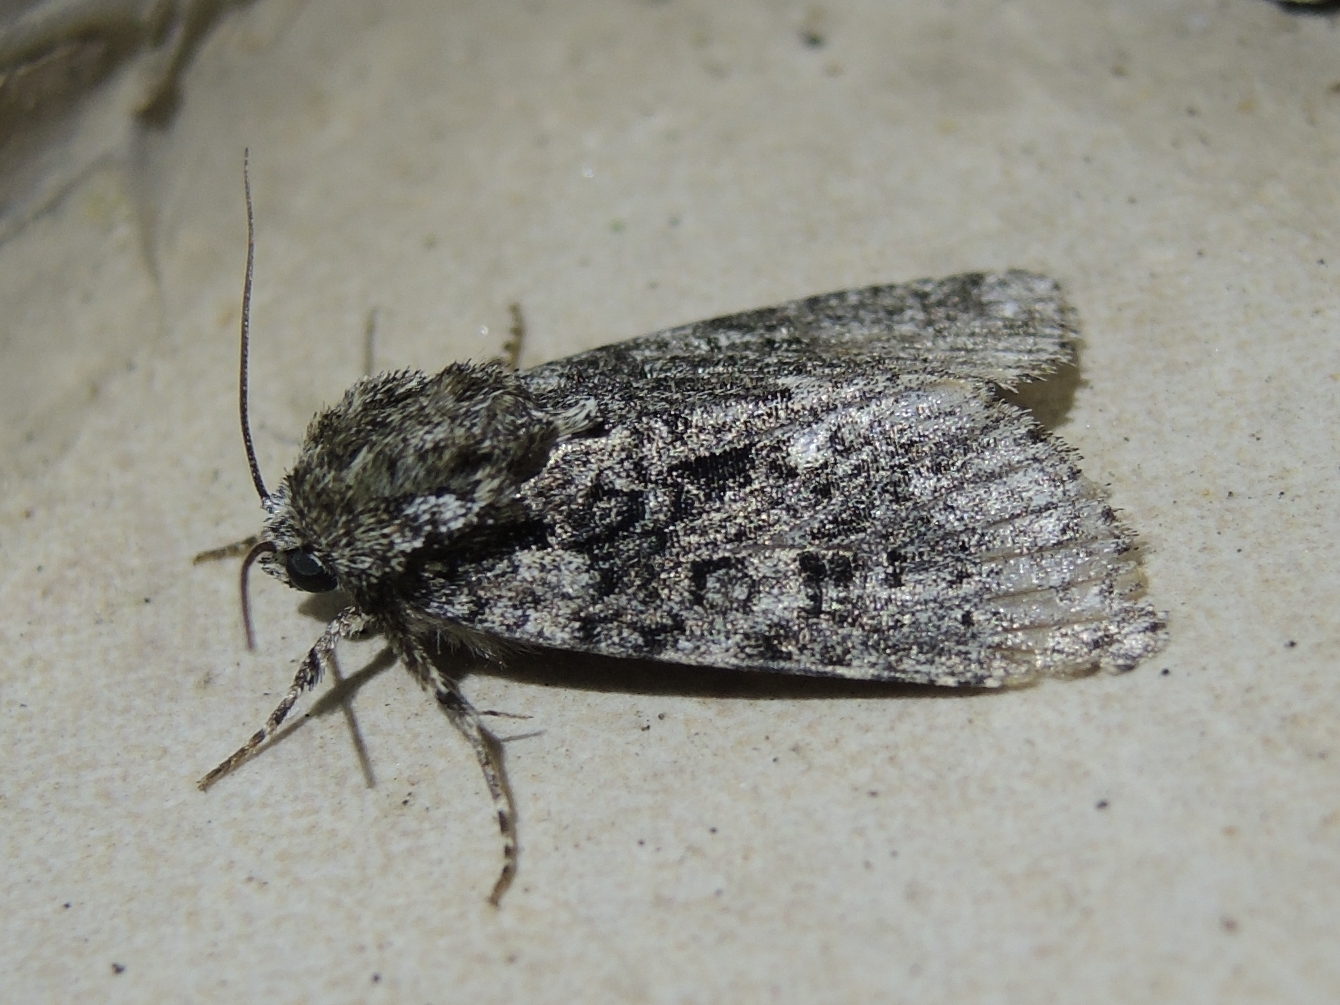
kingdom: Animalia
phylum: Arthropoda
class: Insecta
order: Lepidoptera
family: Noctuidae
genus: Acronicta
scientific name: Acronicta rumicis
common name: Knot grass
